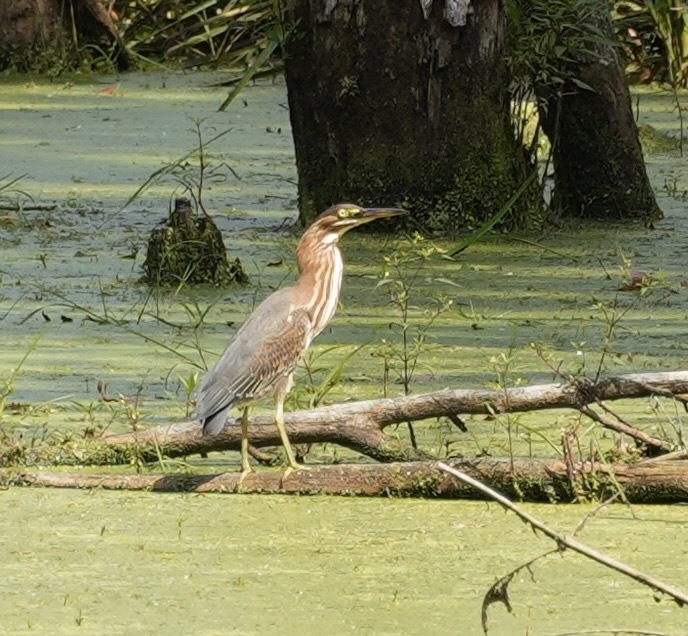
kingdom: Animalia
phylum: Chordata
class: Aves
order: Pelecaniformes
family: Ardeidae
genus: Butorides
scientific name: Butorides virescens
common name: Green heron
